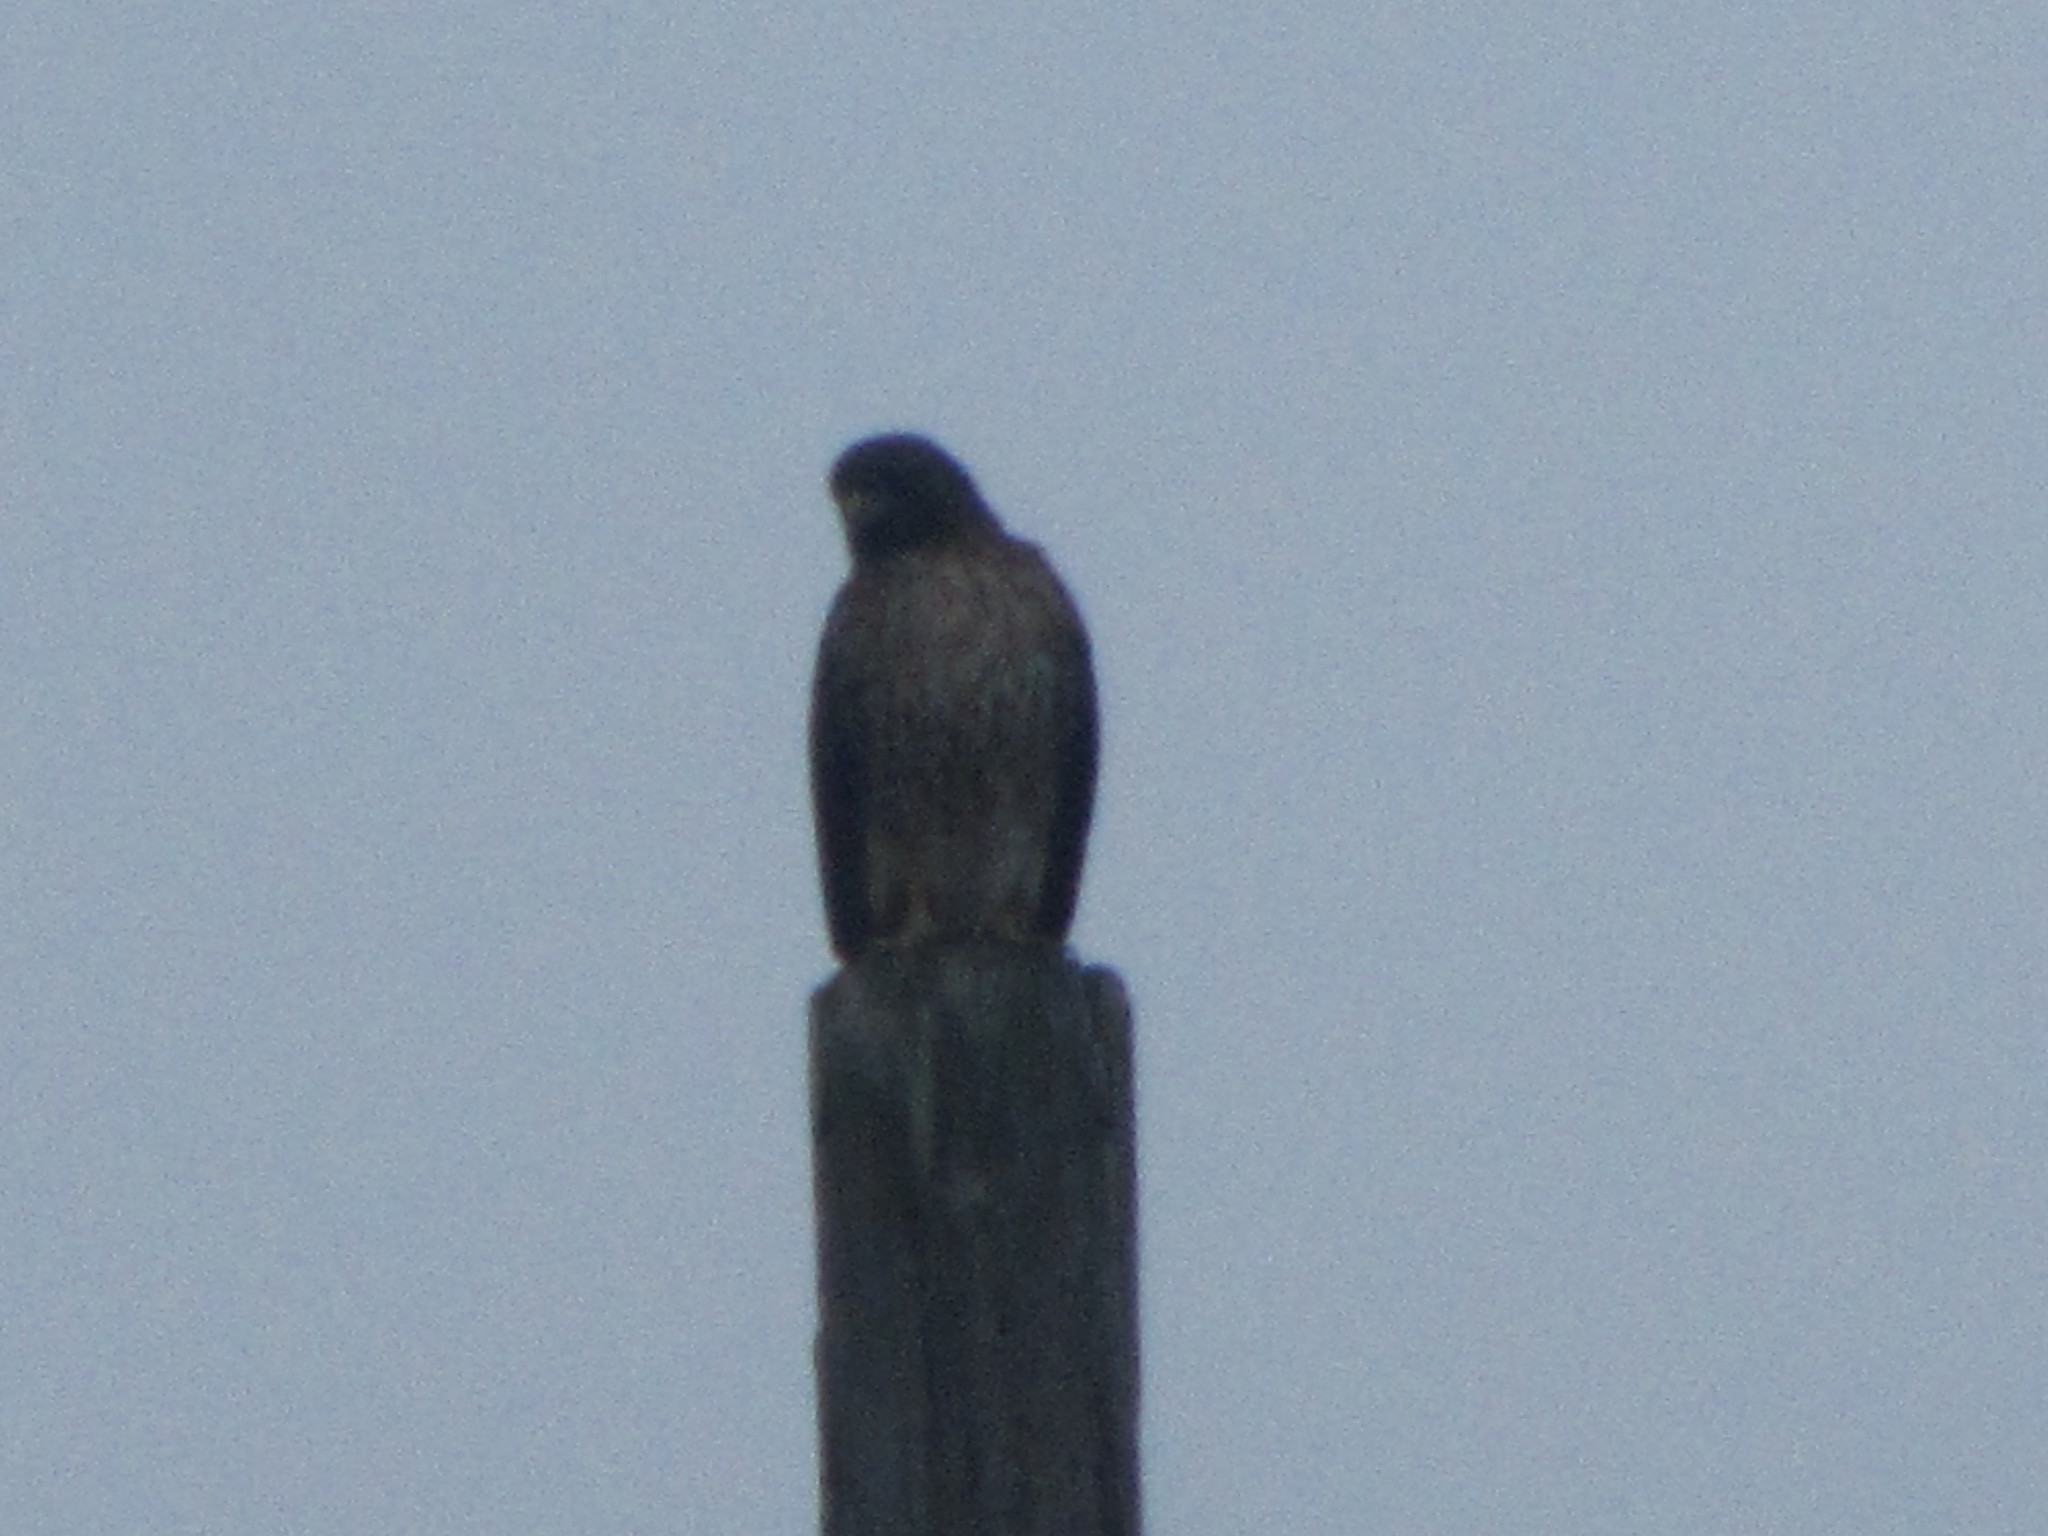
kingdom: Animalia
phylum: Chordata
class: Aves
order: Accipitriformes
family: Accipitridae
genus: Buteo
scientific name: Buteo jamaicensis
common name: Red-tailed hawk
